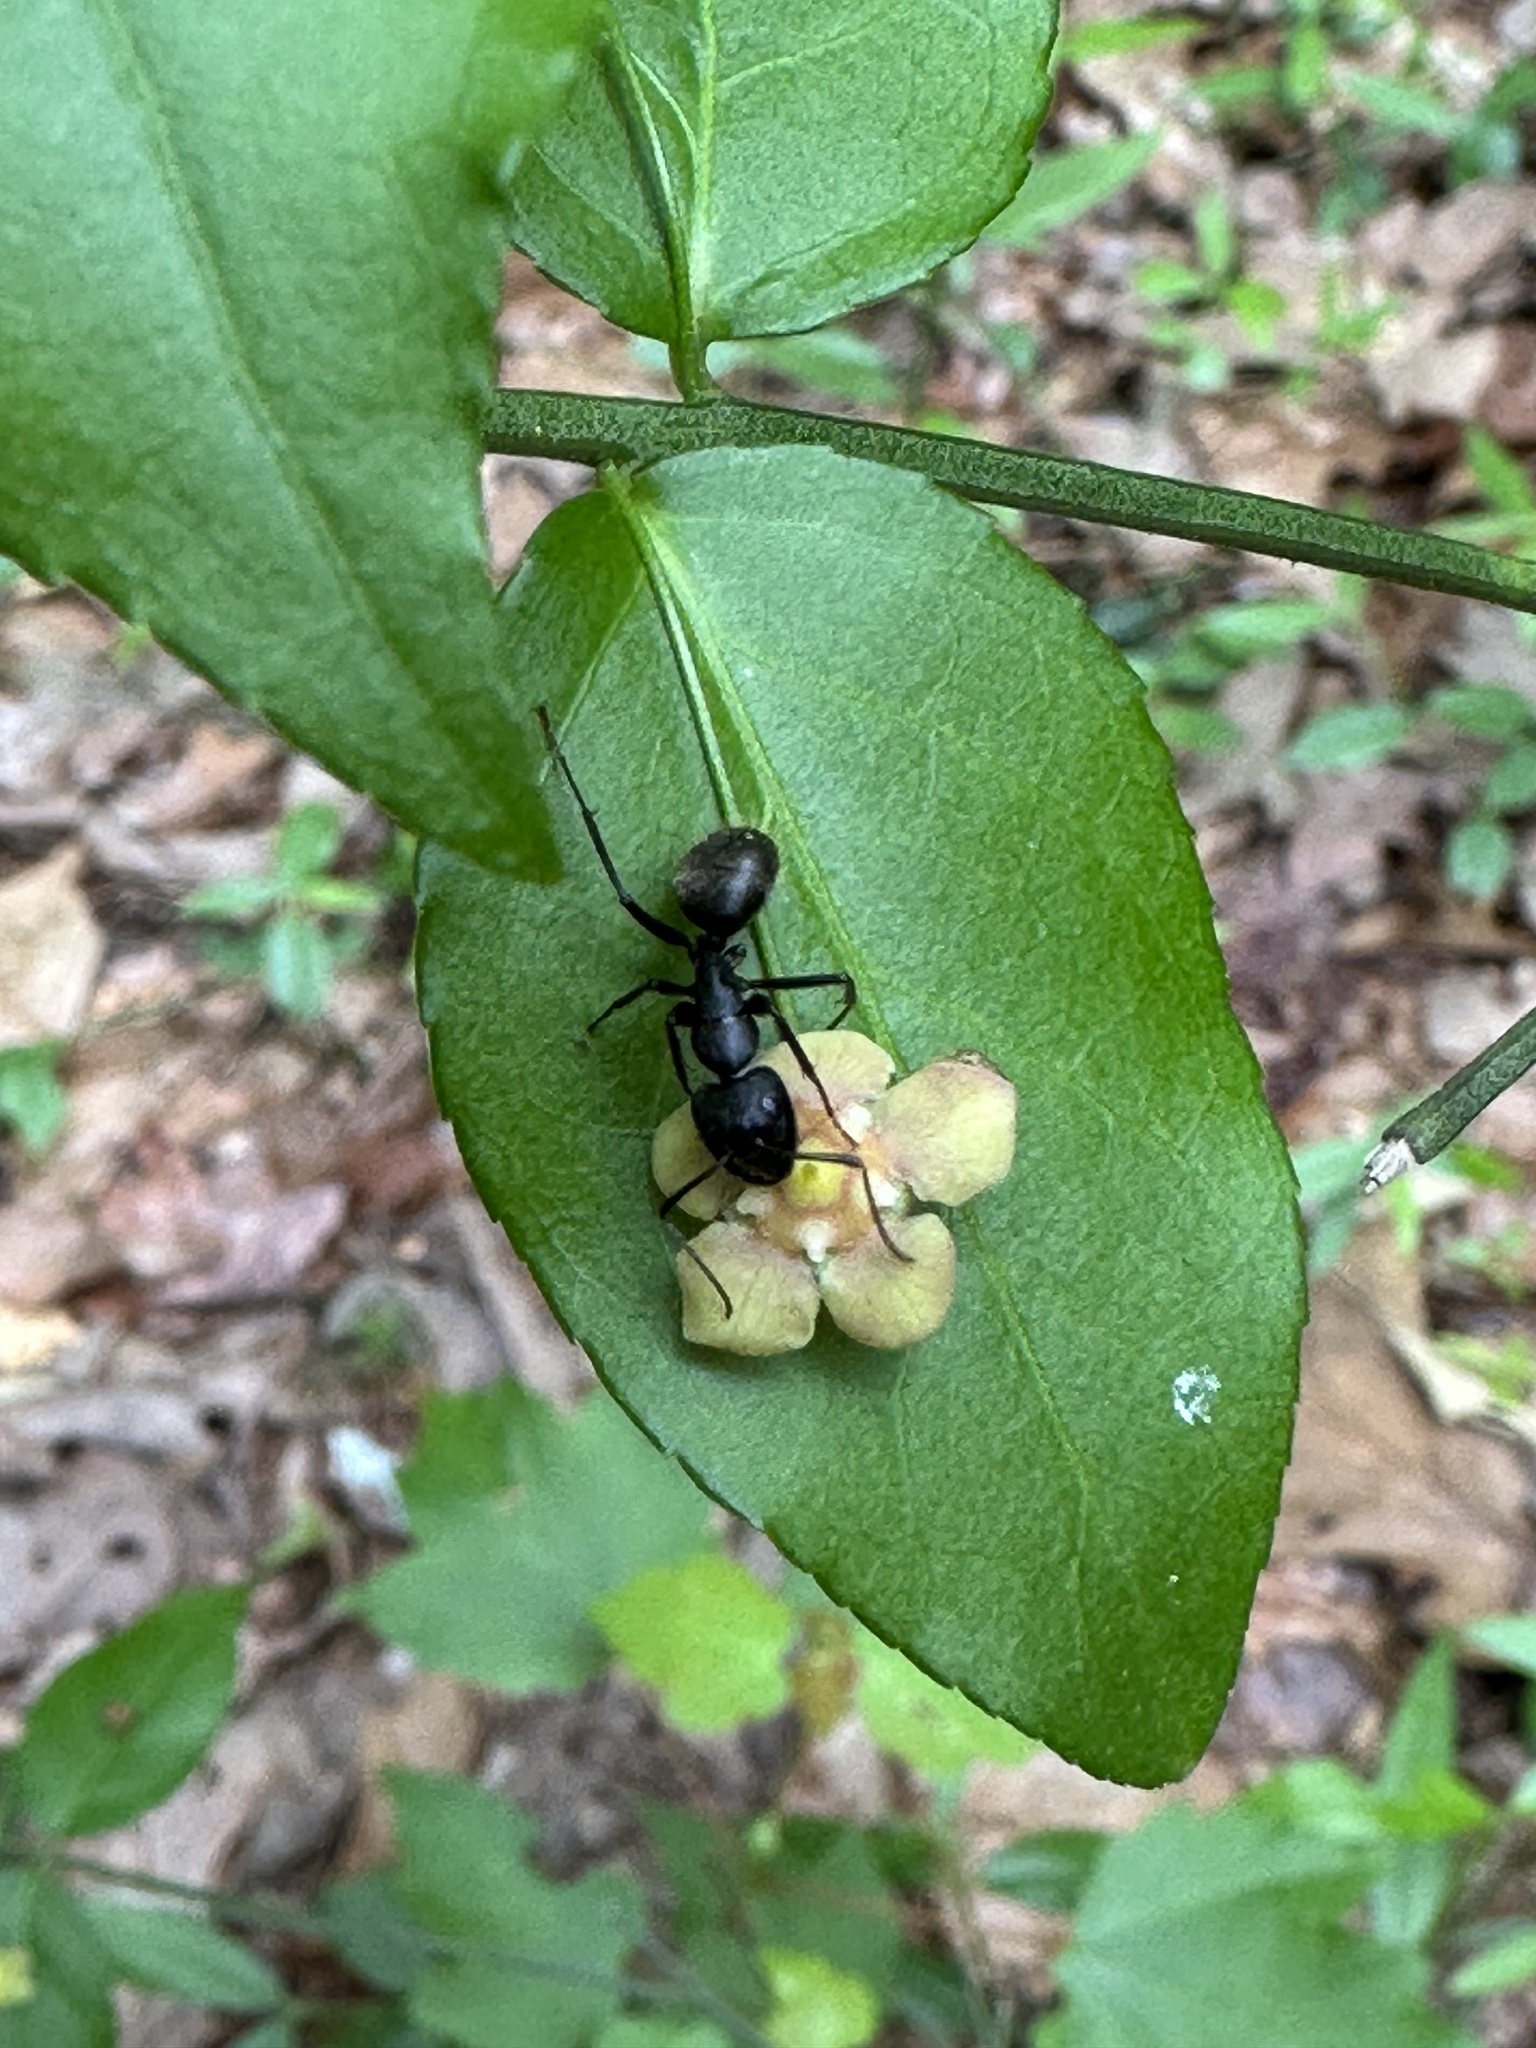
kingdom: Plantae
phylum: Tracheophyta
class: Magnoliopsida
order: Celastrales
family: Celastraceae
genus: Euonymus
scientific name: Euonymus americanus
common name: Bursting-heart
